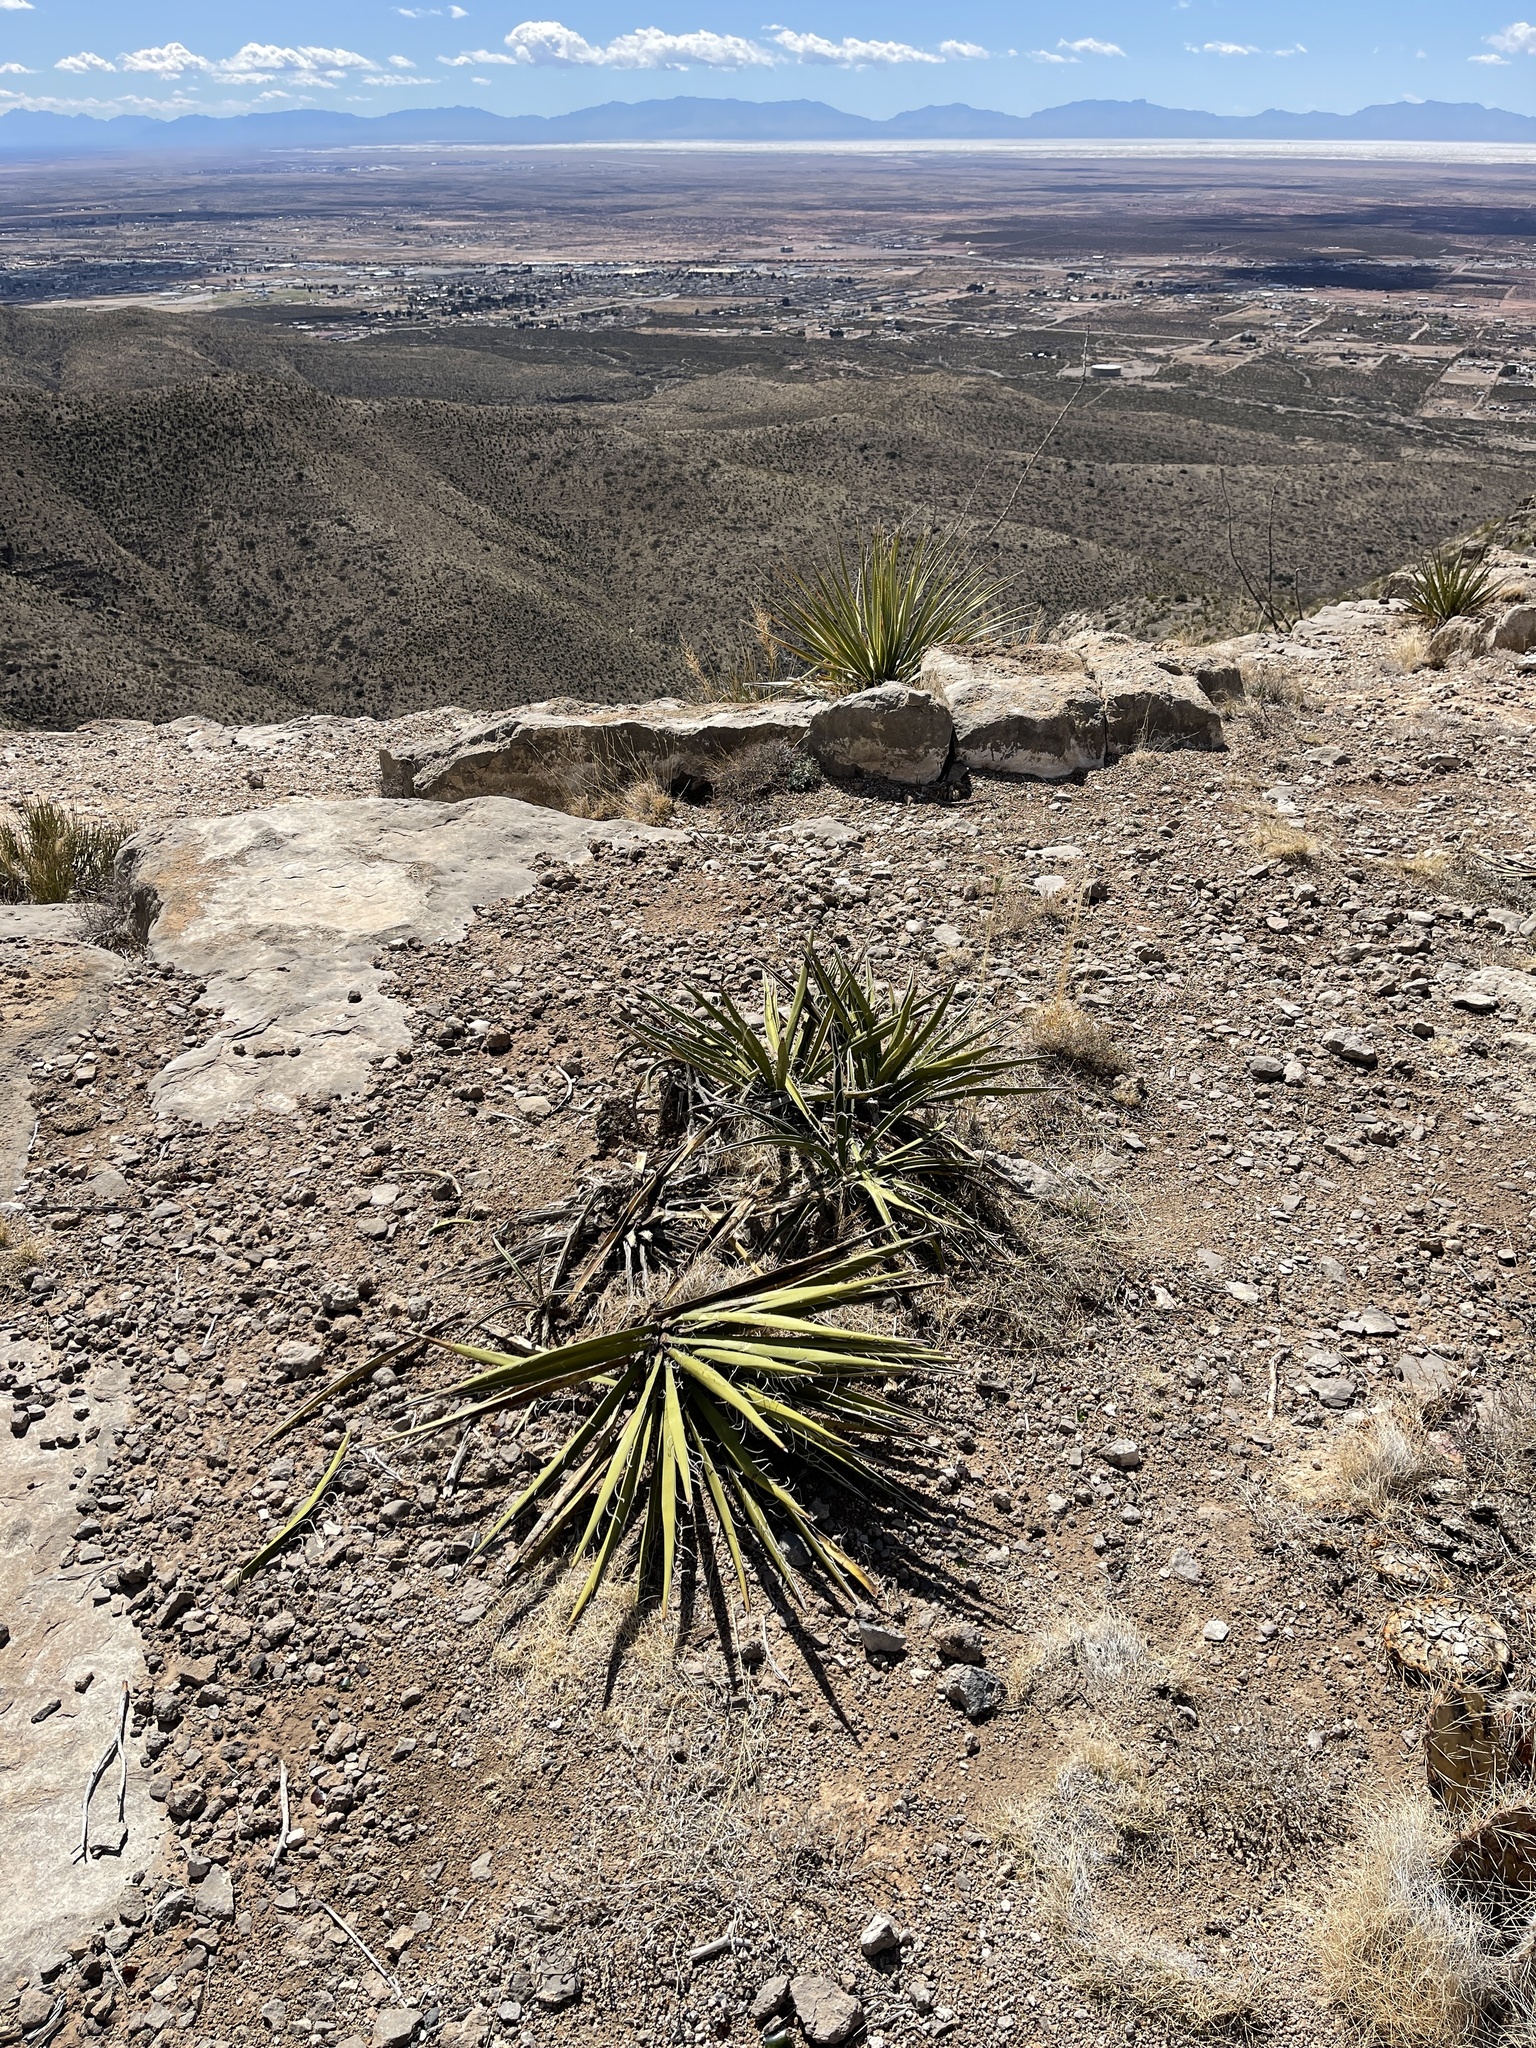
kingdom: Plantae
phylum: Tracheophyta
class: Liliopsida
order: Asparagales
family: Asparagaceae
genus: Yucca
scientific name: Yucca baccata
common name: Banana yucca
